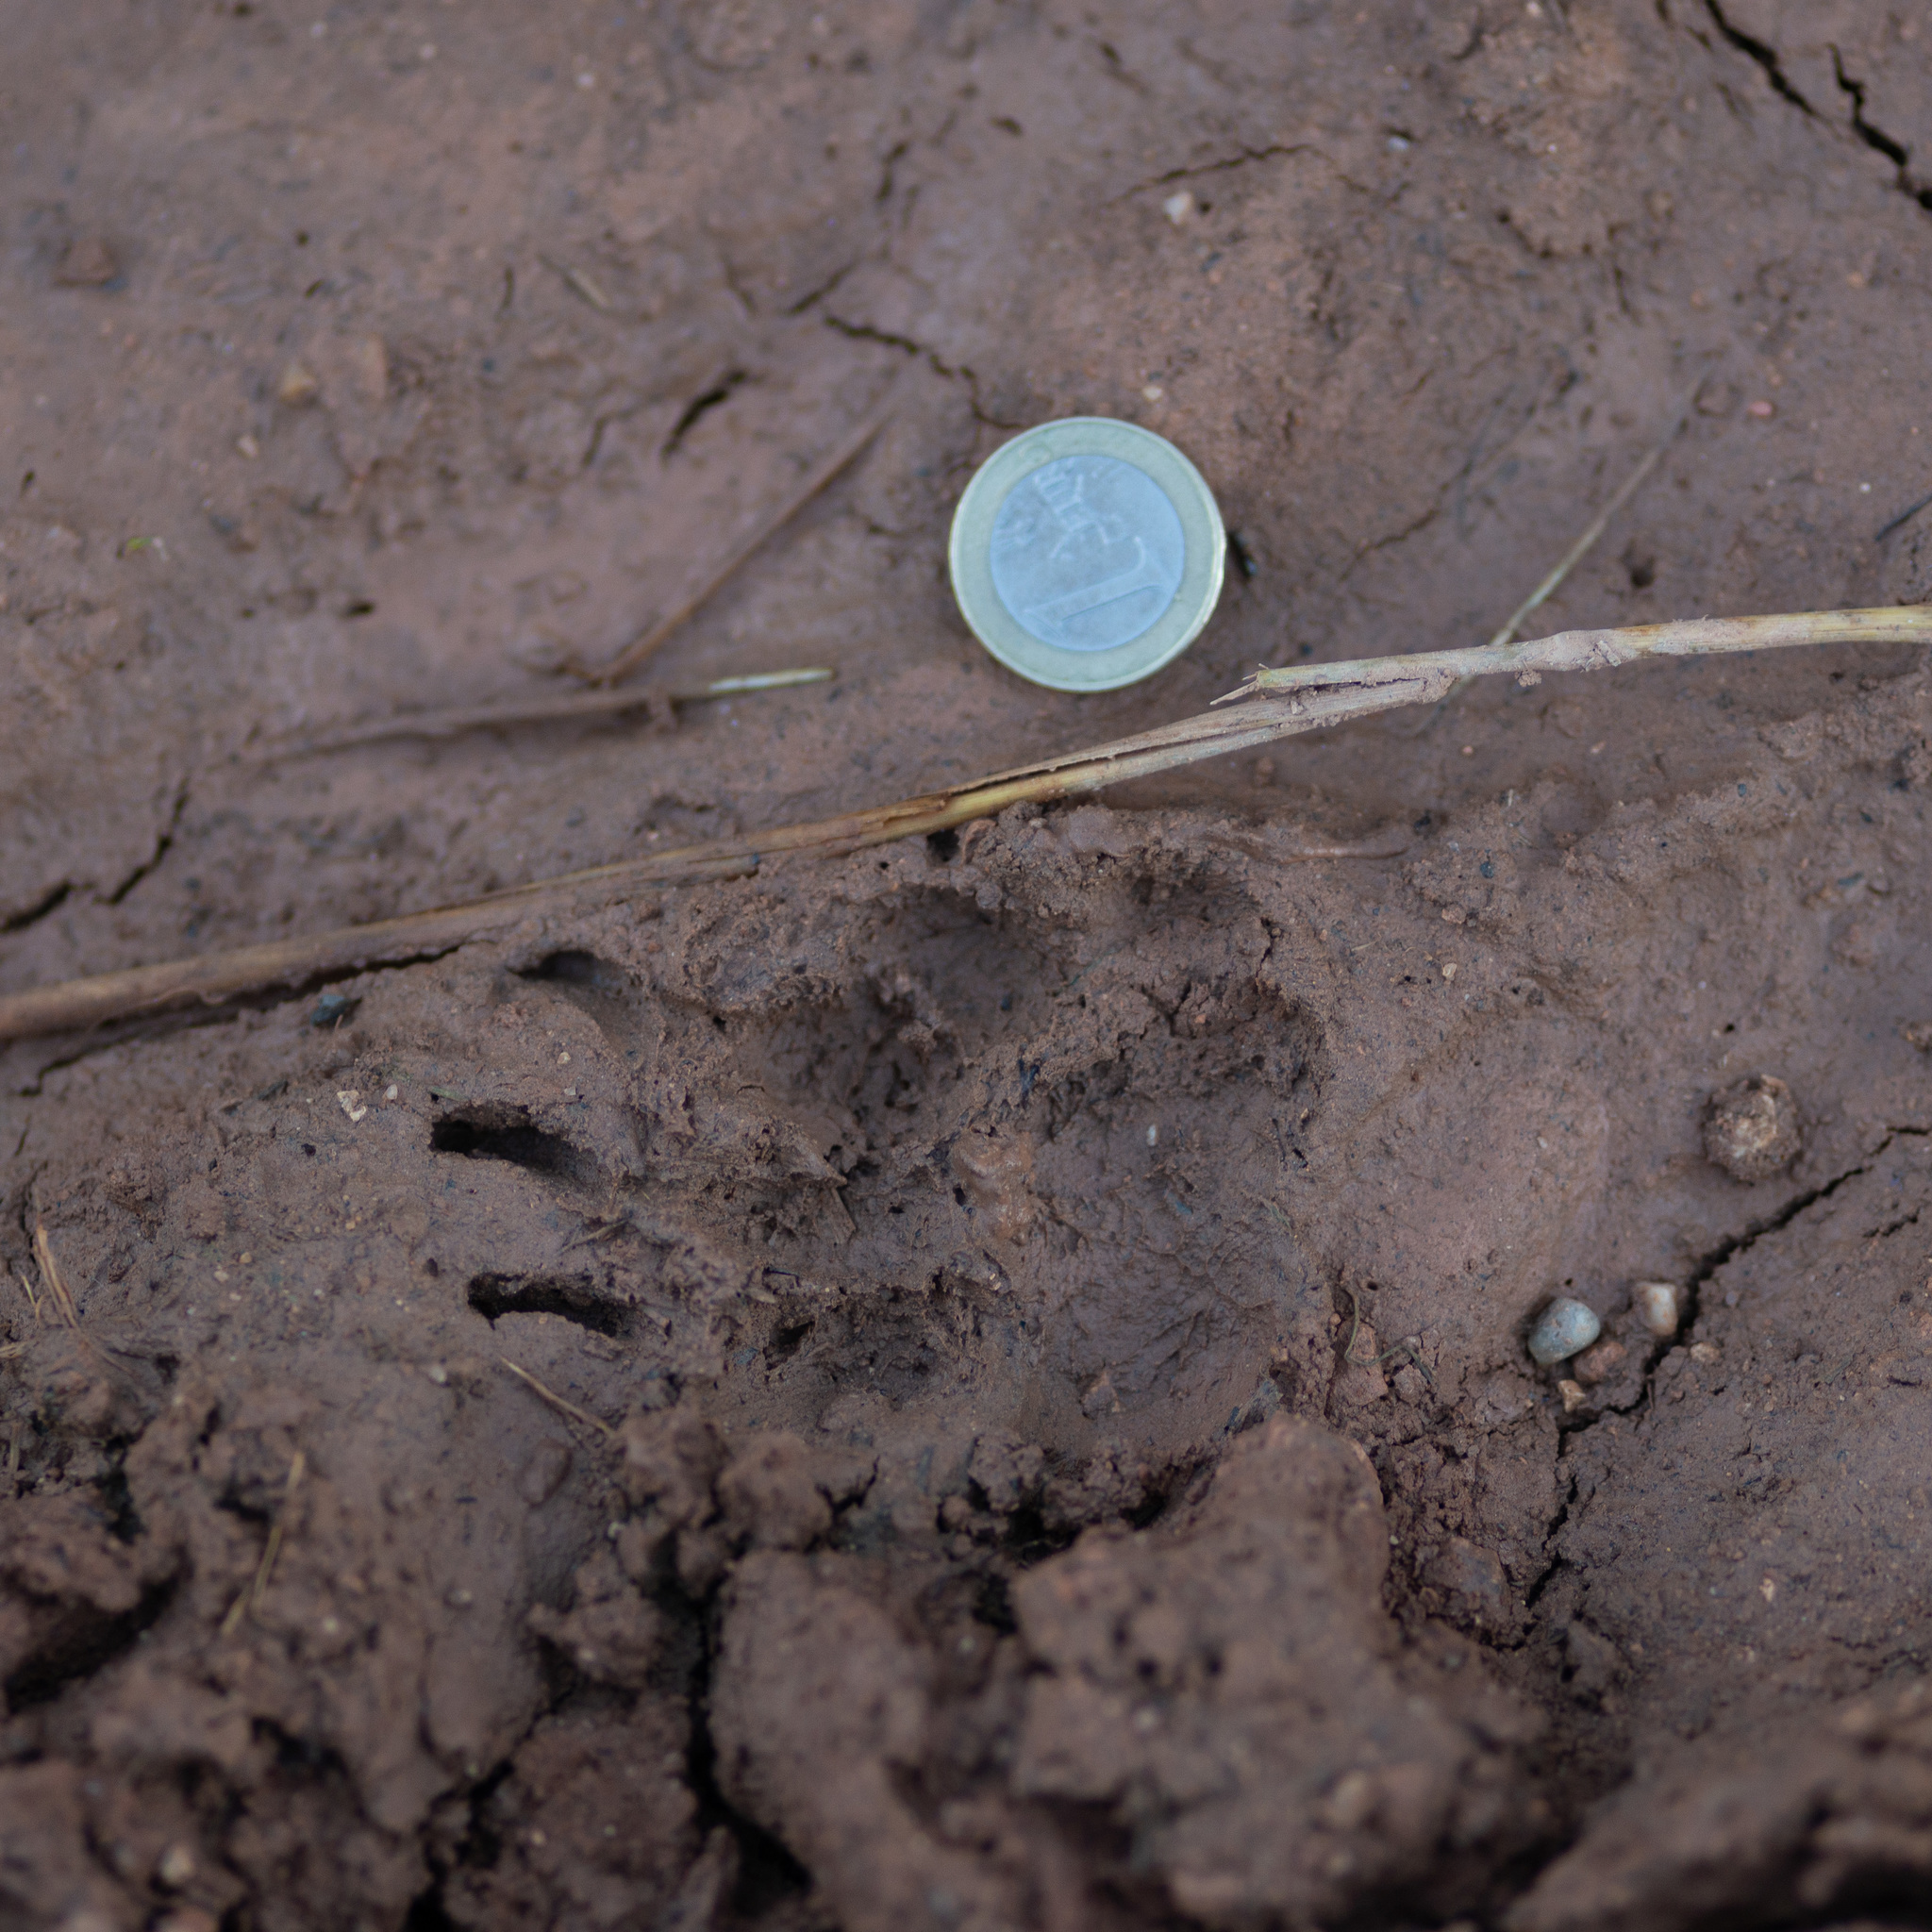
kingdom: Animalia
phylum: Chordata
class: Mammalia
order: Carnivora
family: Mustelidae
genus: Meles
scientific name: Meles meles
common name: Eurasian badger
